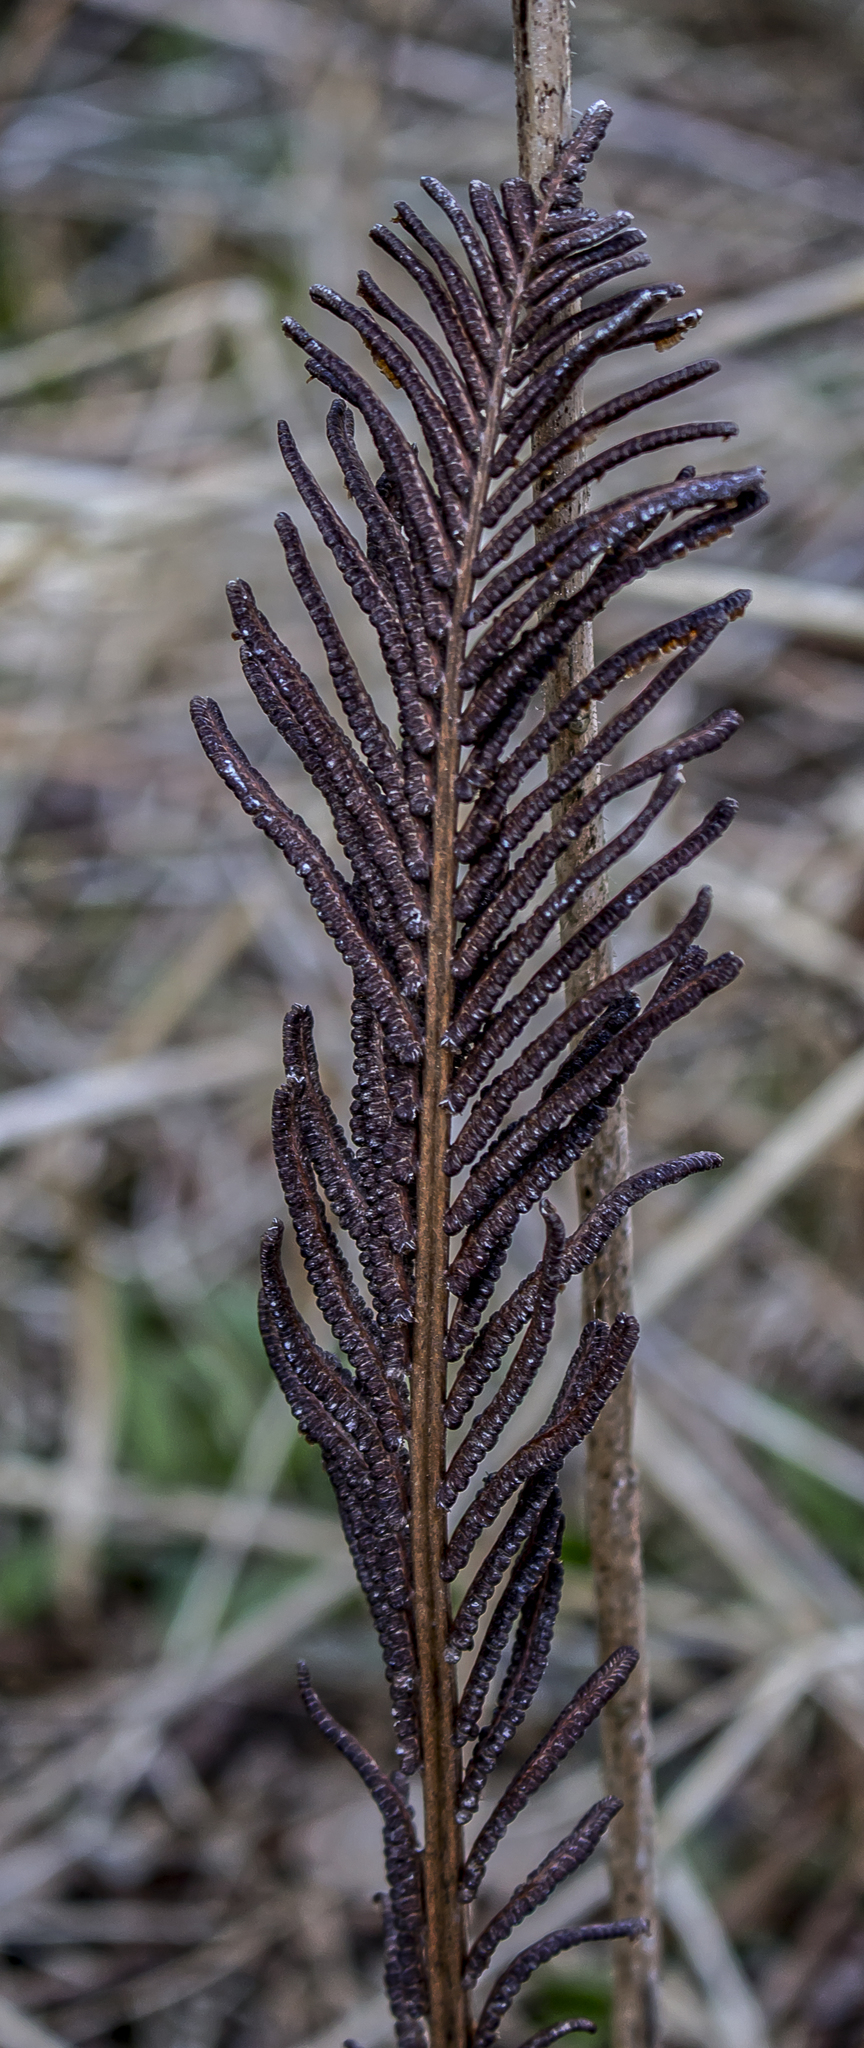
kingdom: Plantae
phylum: Tracheophyta
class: Polypodiopsida
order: Polypodiales
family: Onocleaceae
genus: Matteuccia
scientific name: Matteuccia struthiopteris
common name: Ostrich fern
